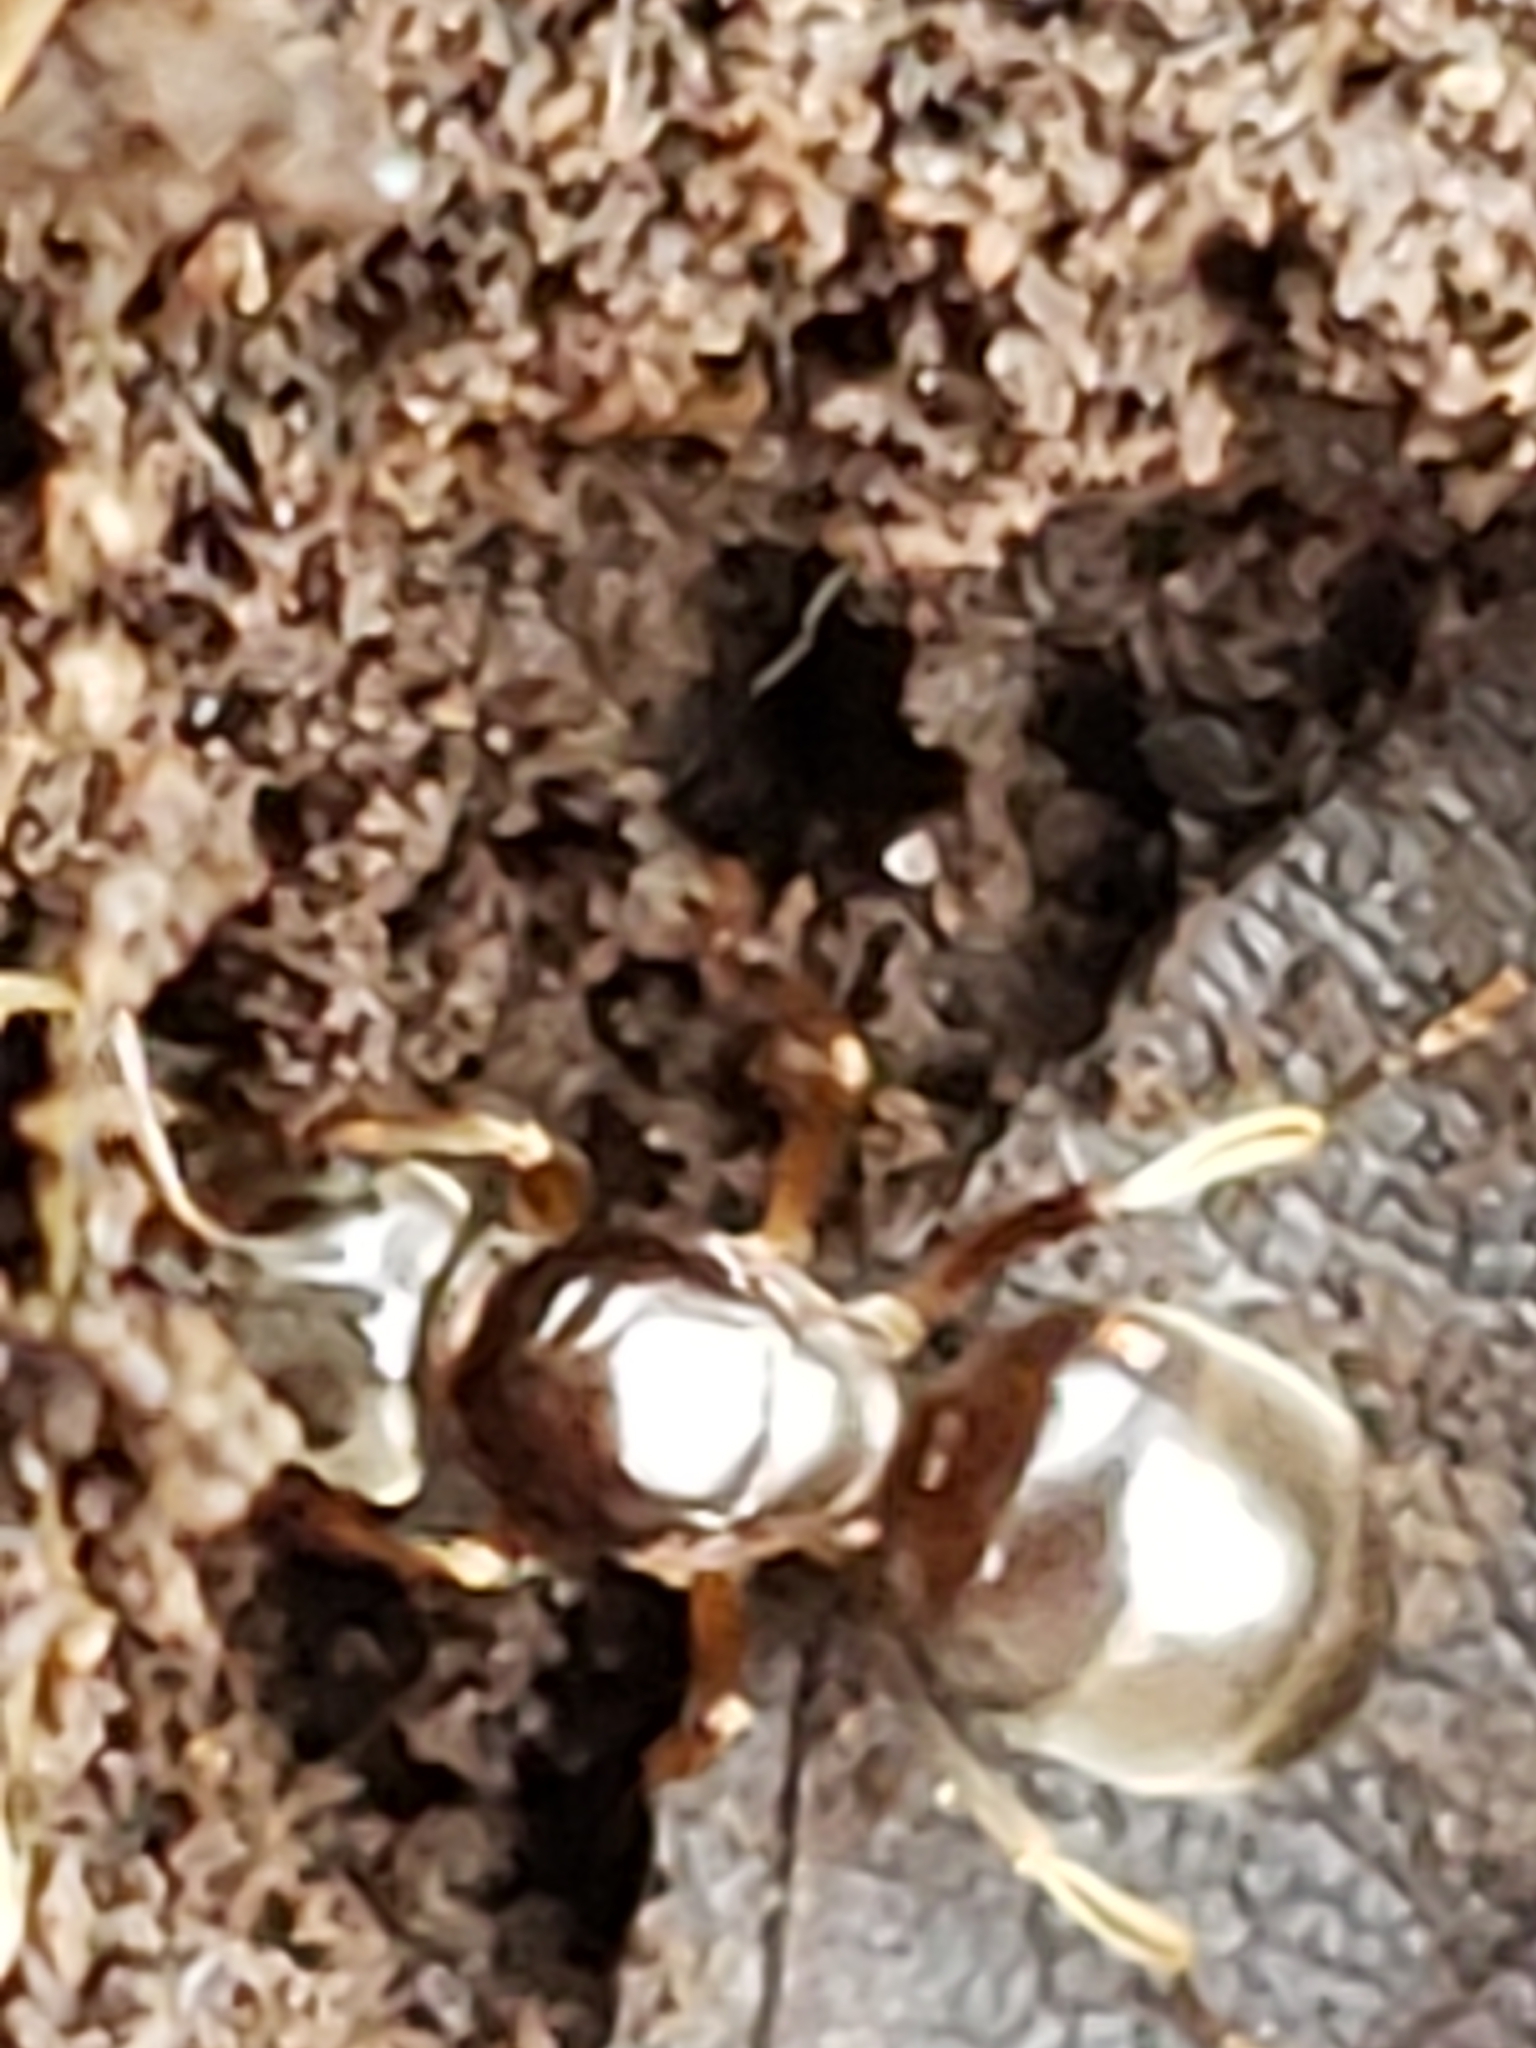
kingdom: Animalia
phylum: Arthropoda
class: Insecta
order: Hymenoptera
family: Formicidae
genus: Lasius
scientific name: Lasius aphidicola
